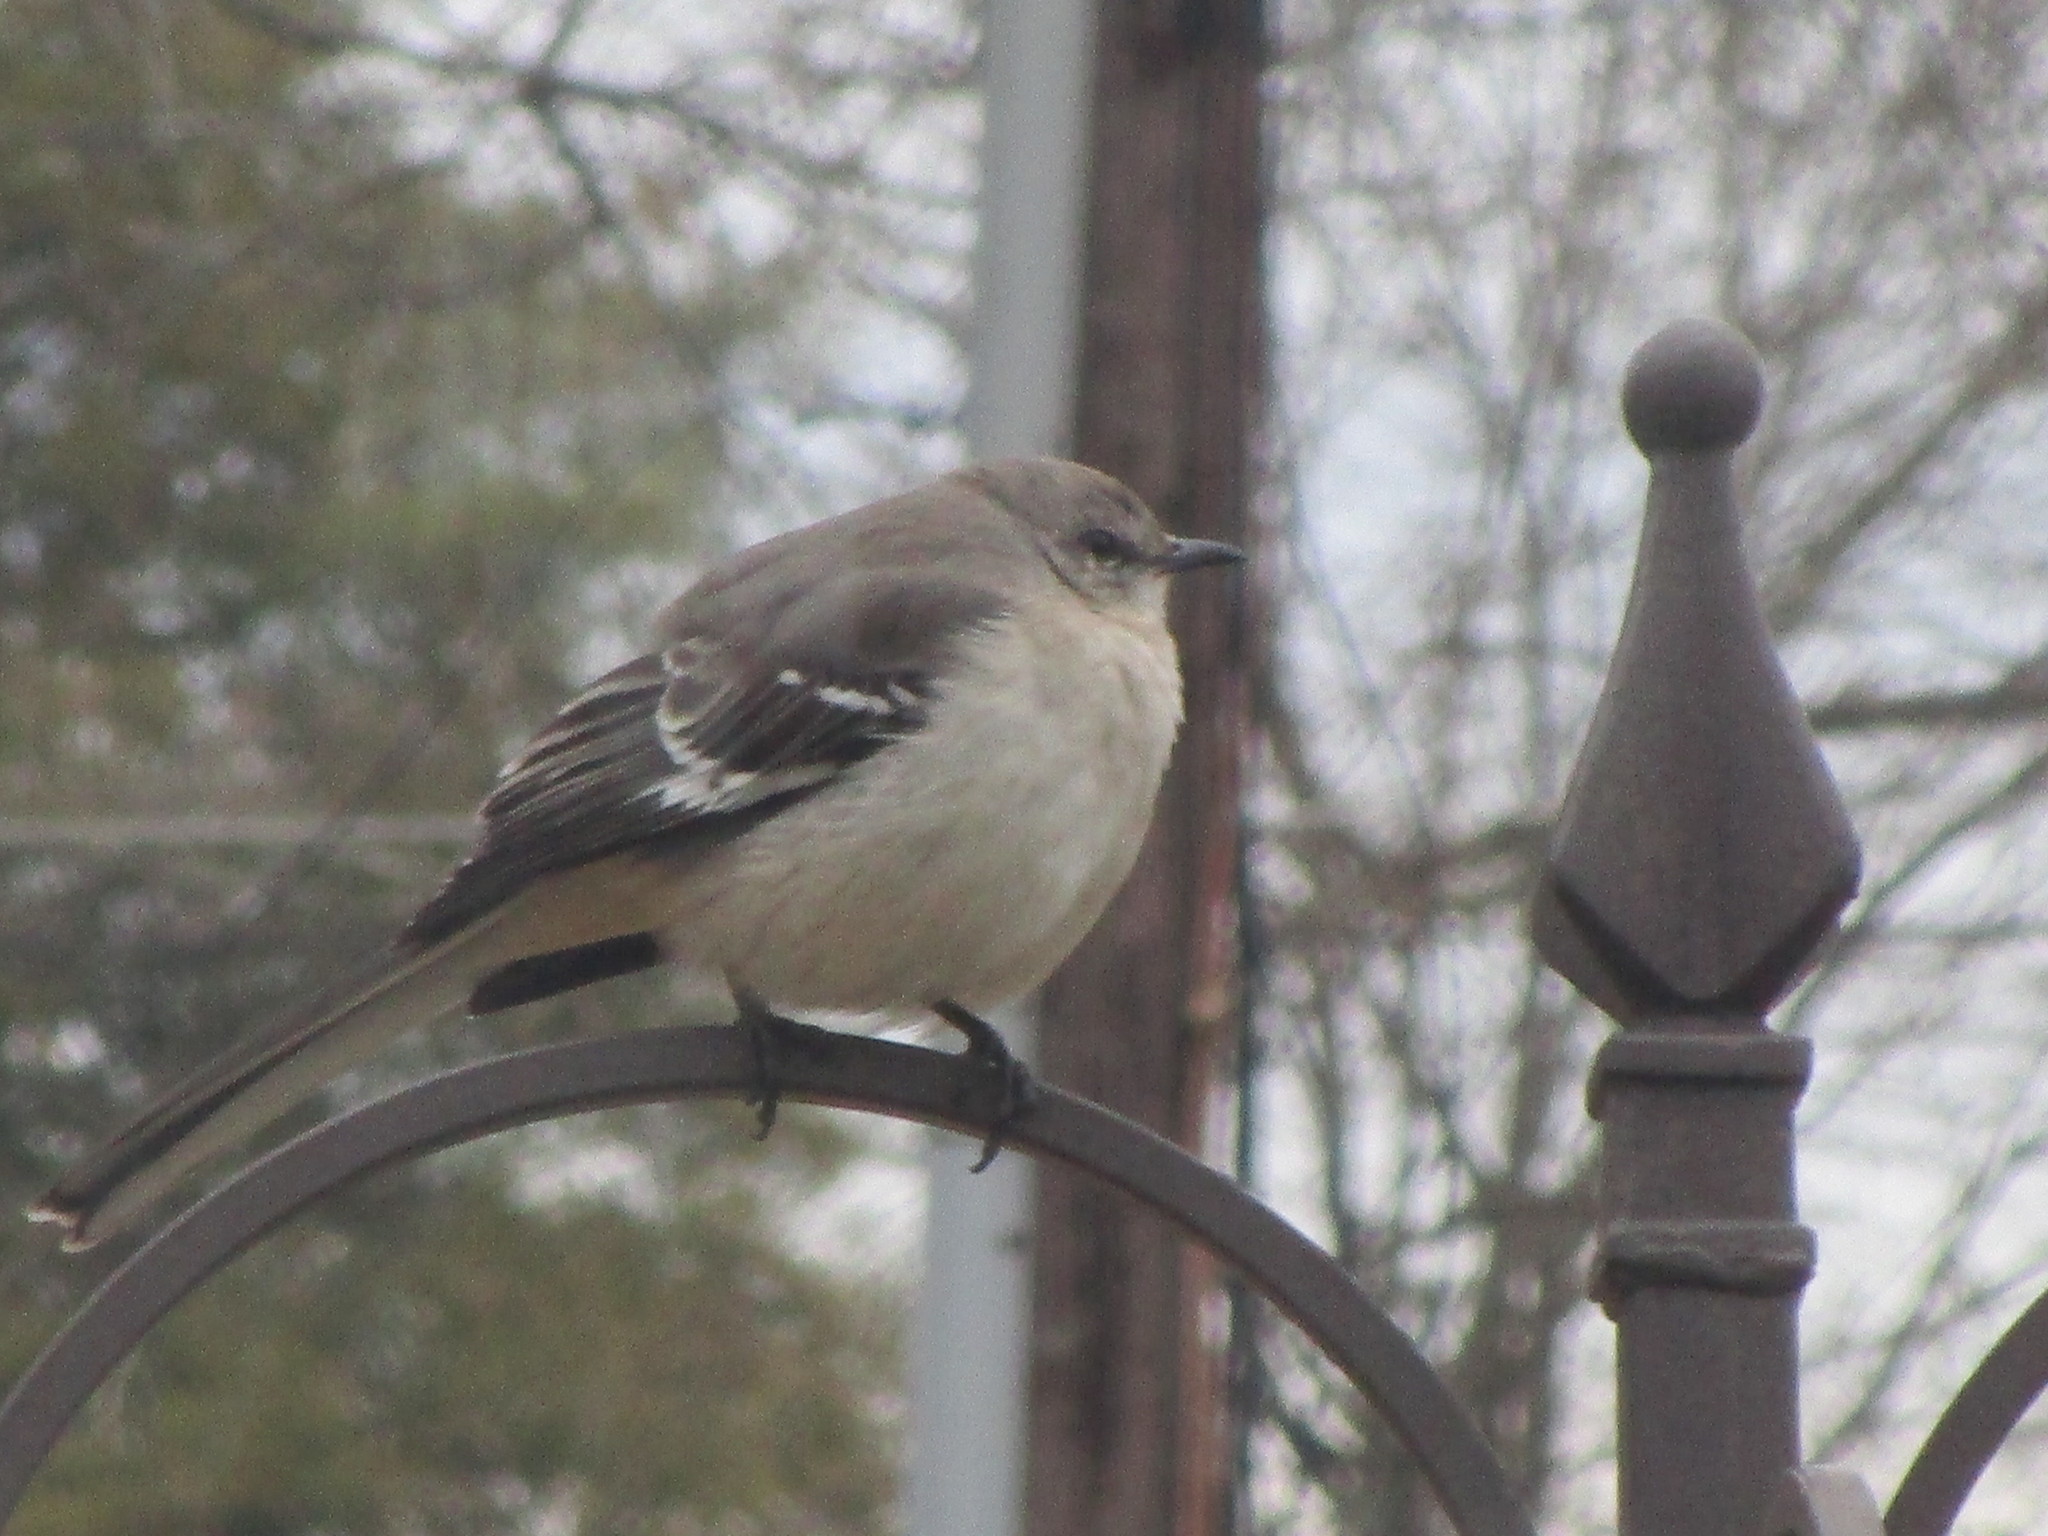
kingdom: Animalia
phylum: Chordata
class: Aves
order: Passeriformes
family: Mimidae
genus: Mimus
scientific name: Mimus polyglottos
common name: Northern mockingbird
